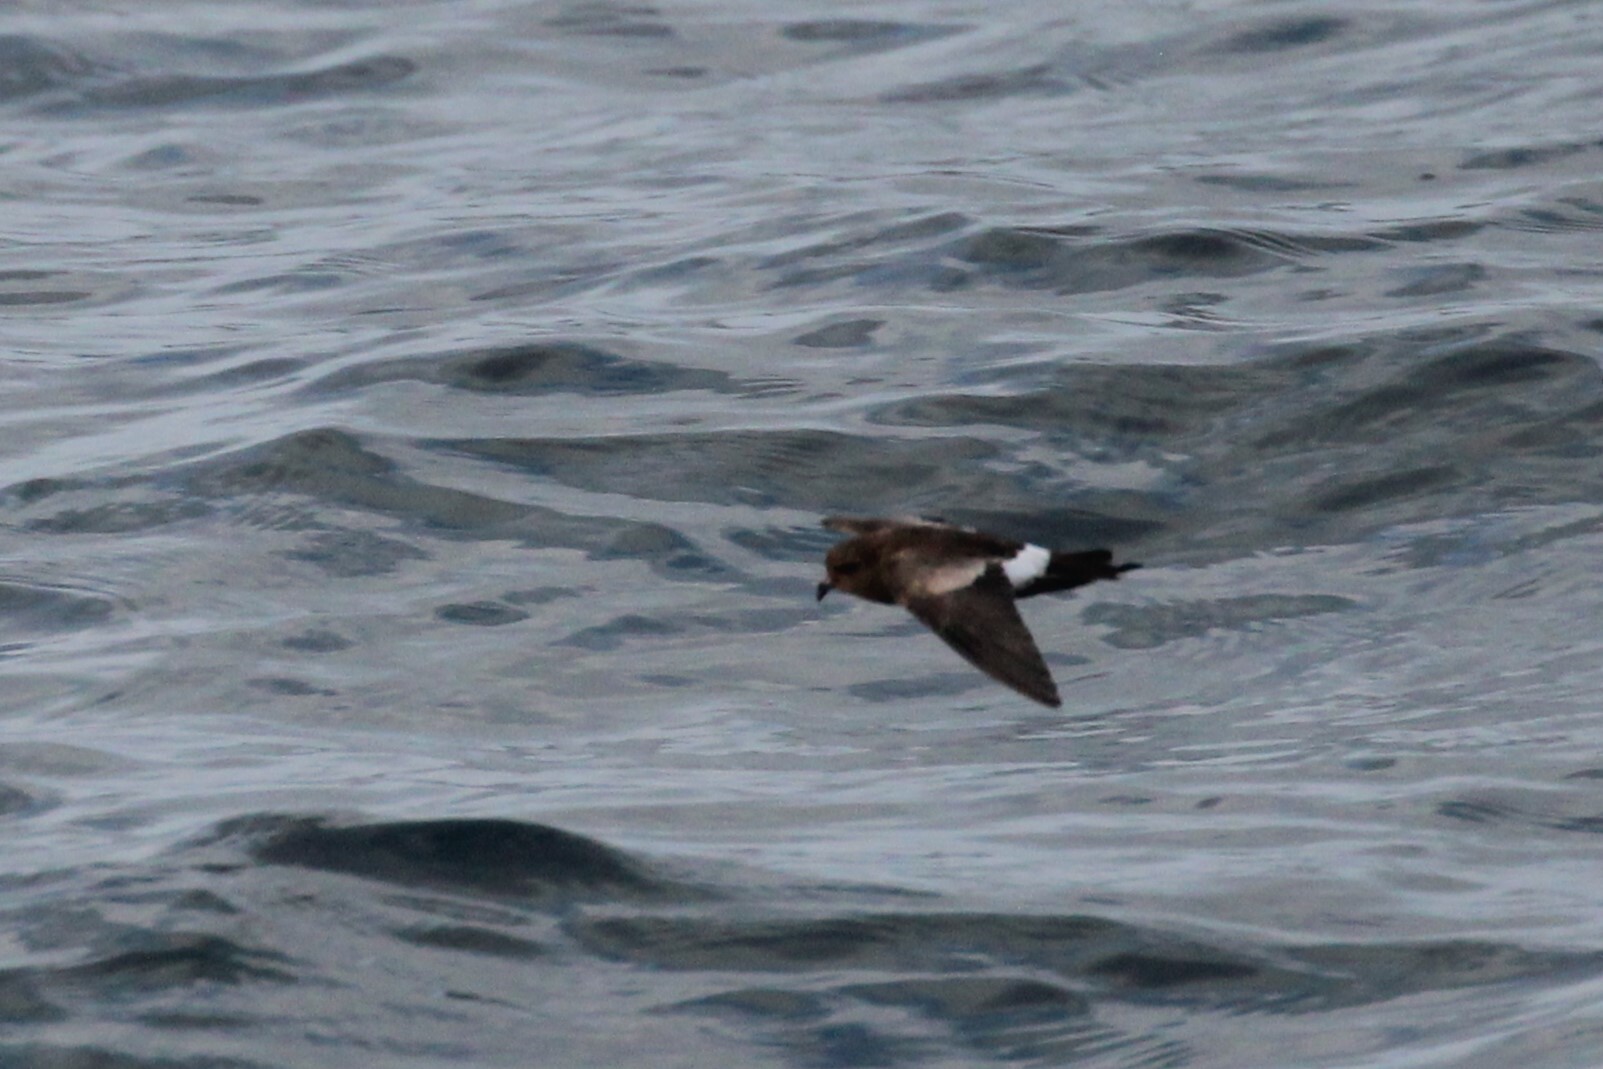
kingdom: Animalia
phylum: Chordata
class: Aves
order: Procellariiformes
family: Hydrobatidae
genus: Oceanites
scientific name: Oceanites gracilis
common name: Elliot's storm-petrel
